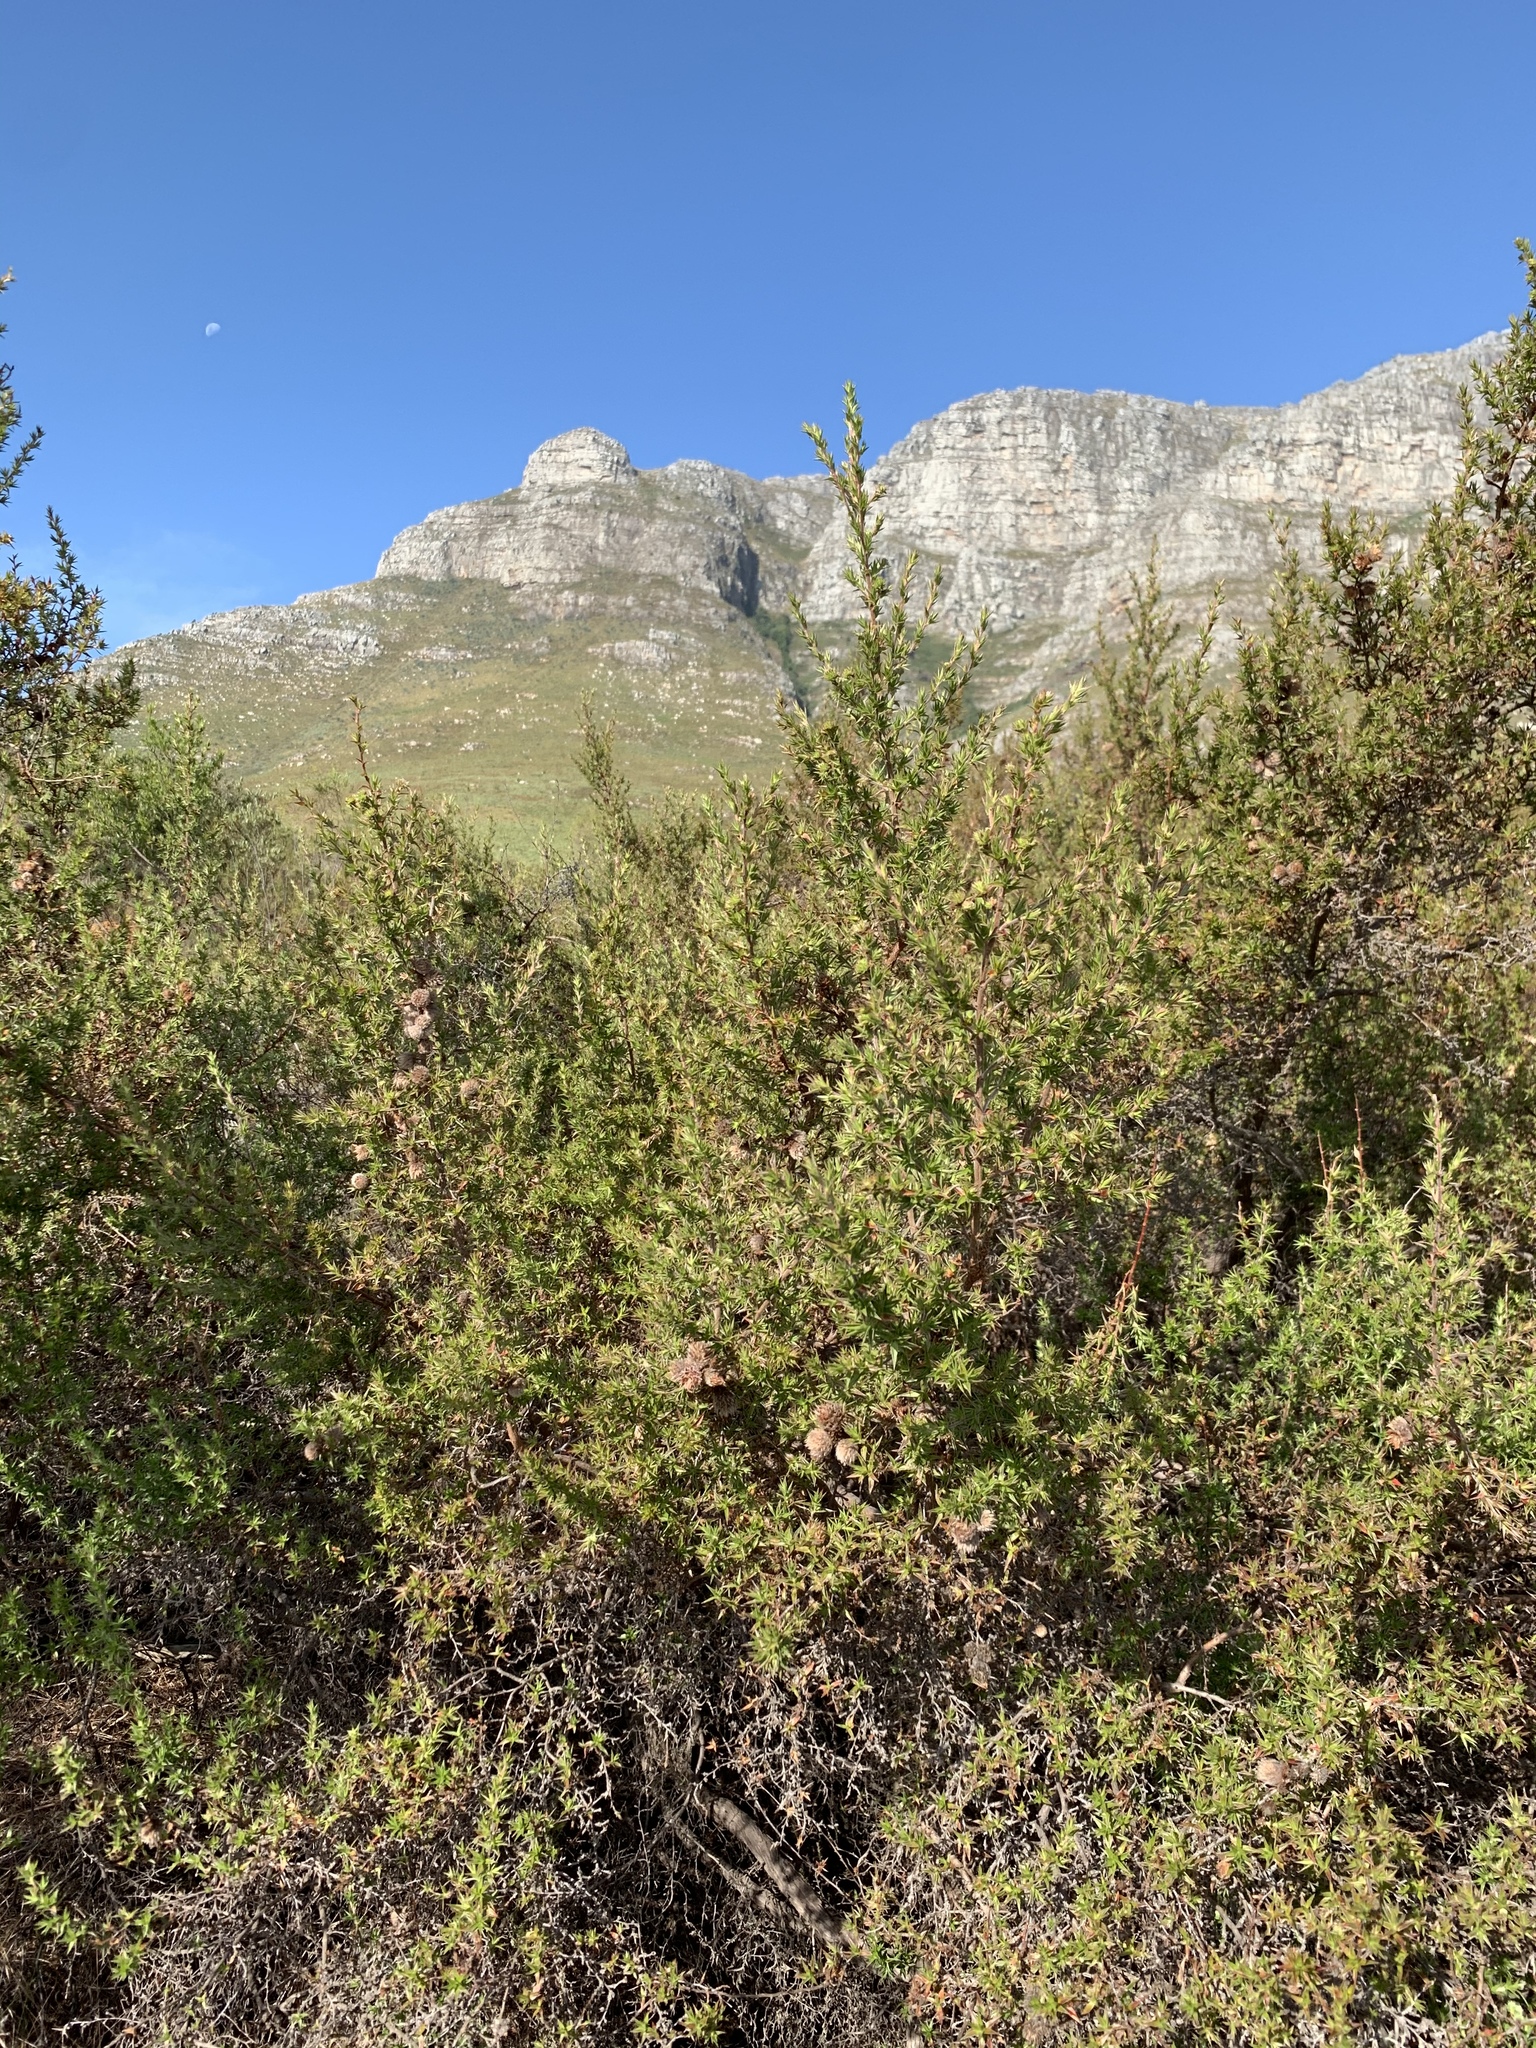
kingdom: Plantae
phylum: Tracheophyta
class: Magnoliopsida
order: Rosales
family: Rosaceae
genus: Cliffortia
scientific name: Cliffortia ruscifolia
